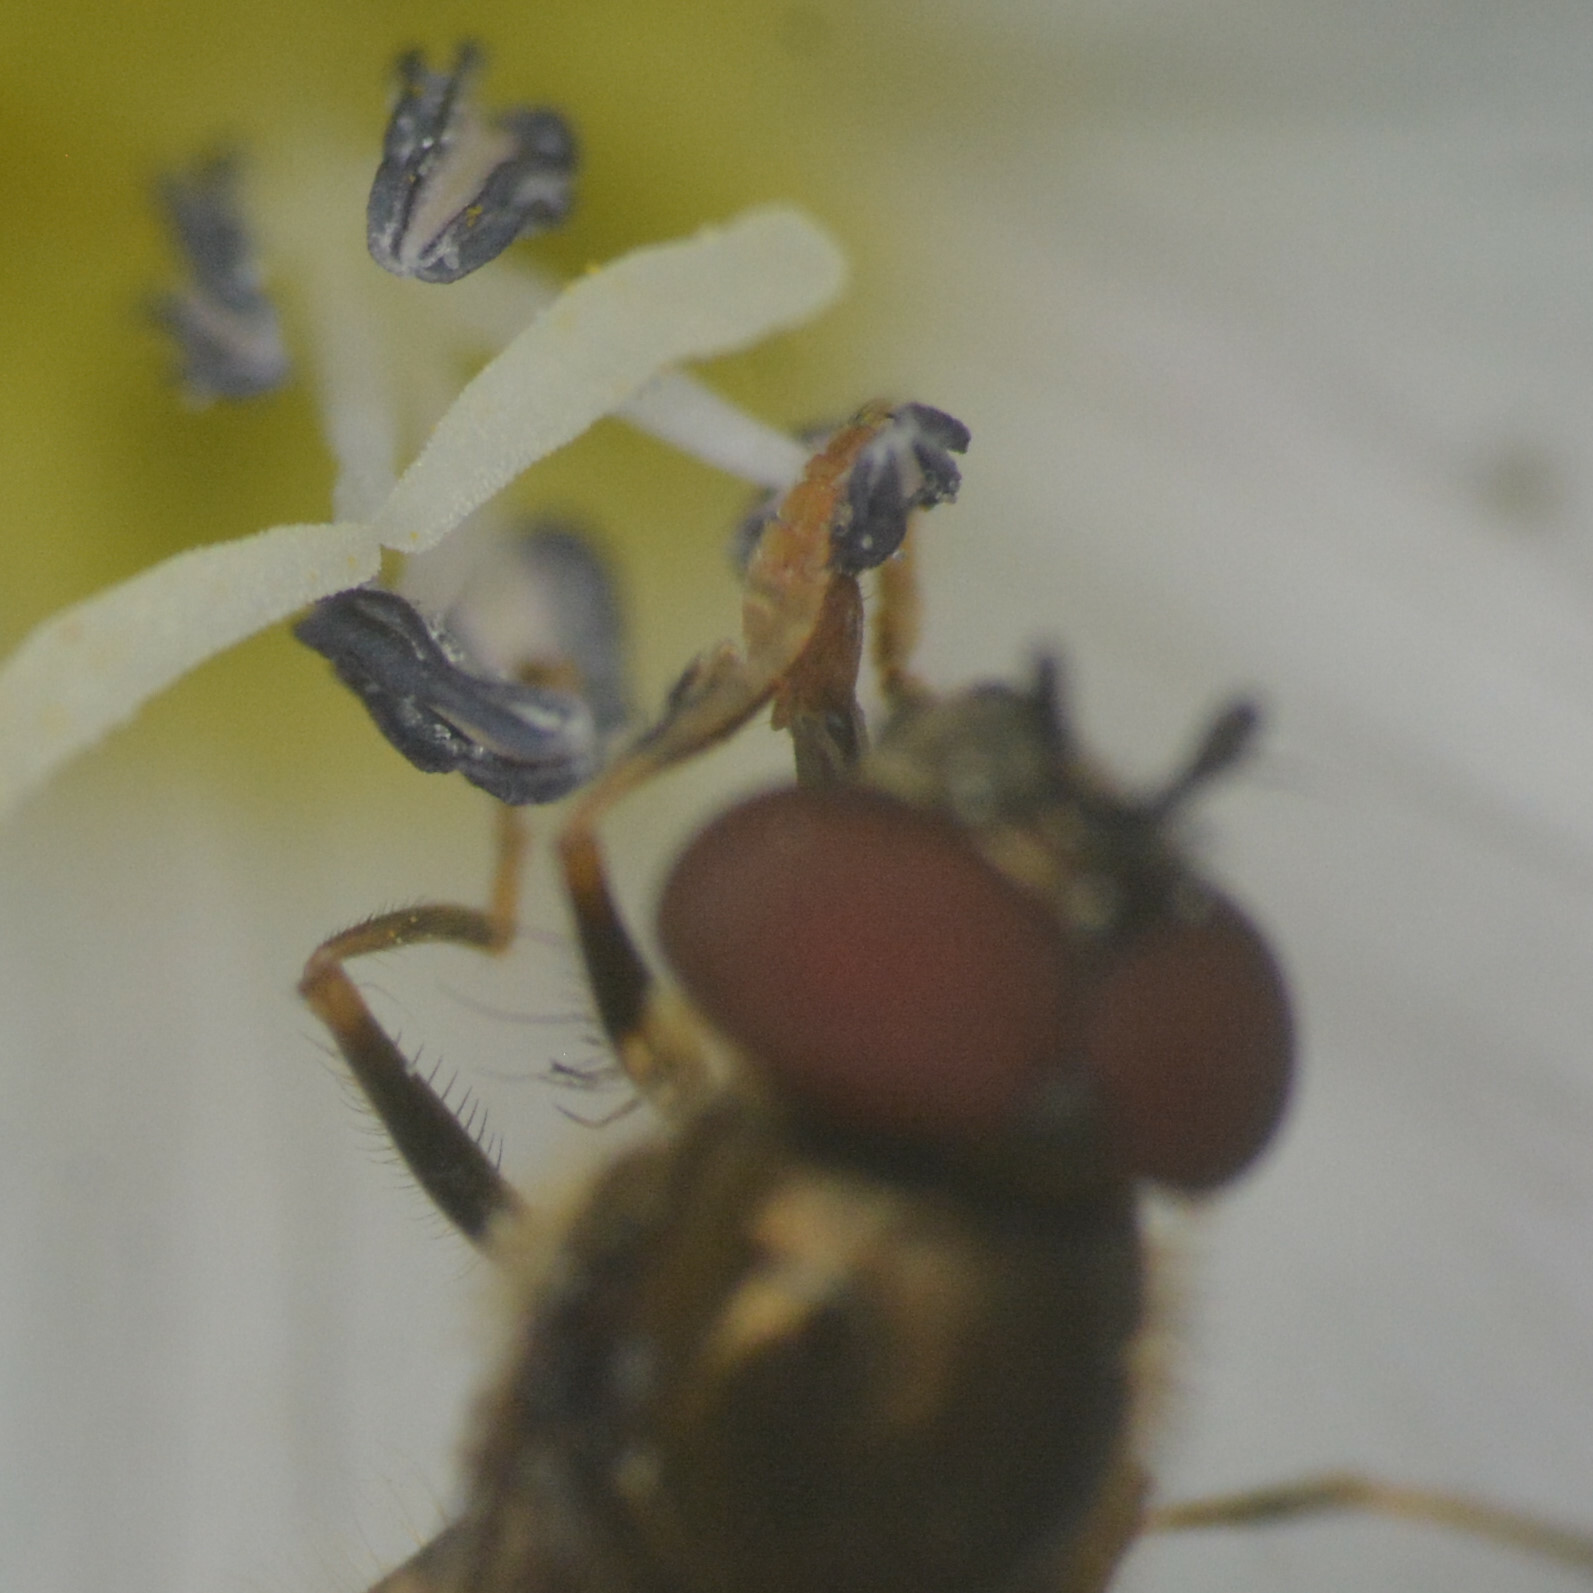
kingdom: Animalia
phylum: Arthropoda
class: Insecta
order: Diptera
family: Syrphidae
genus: Platycheirus
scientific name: Platycheirus albimanus
